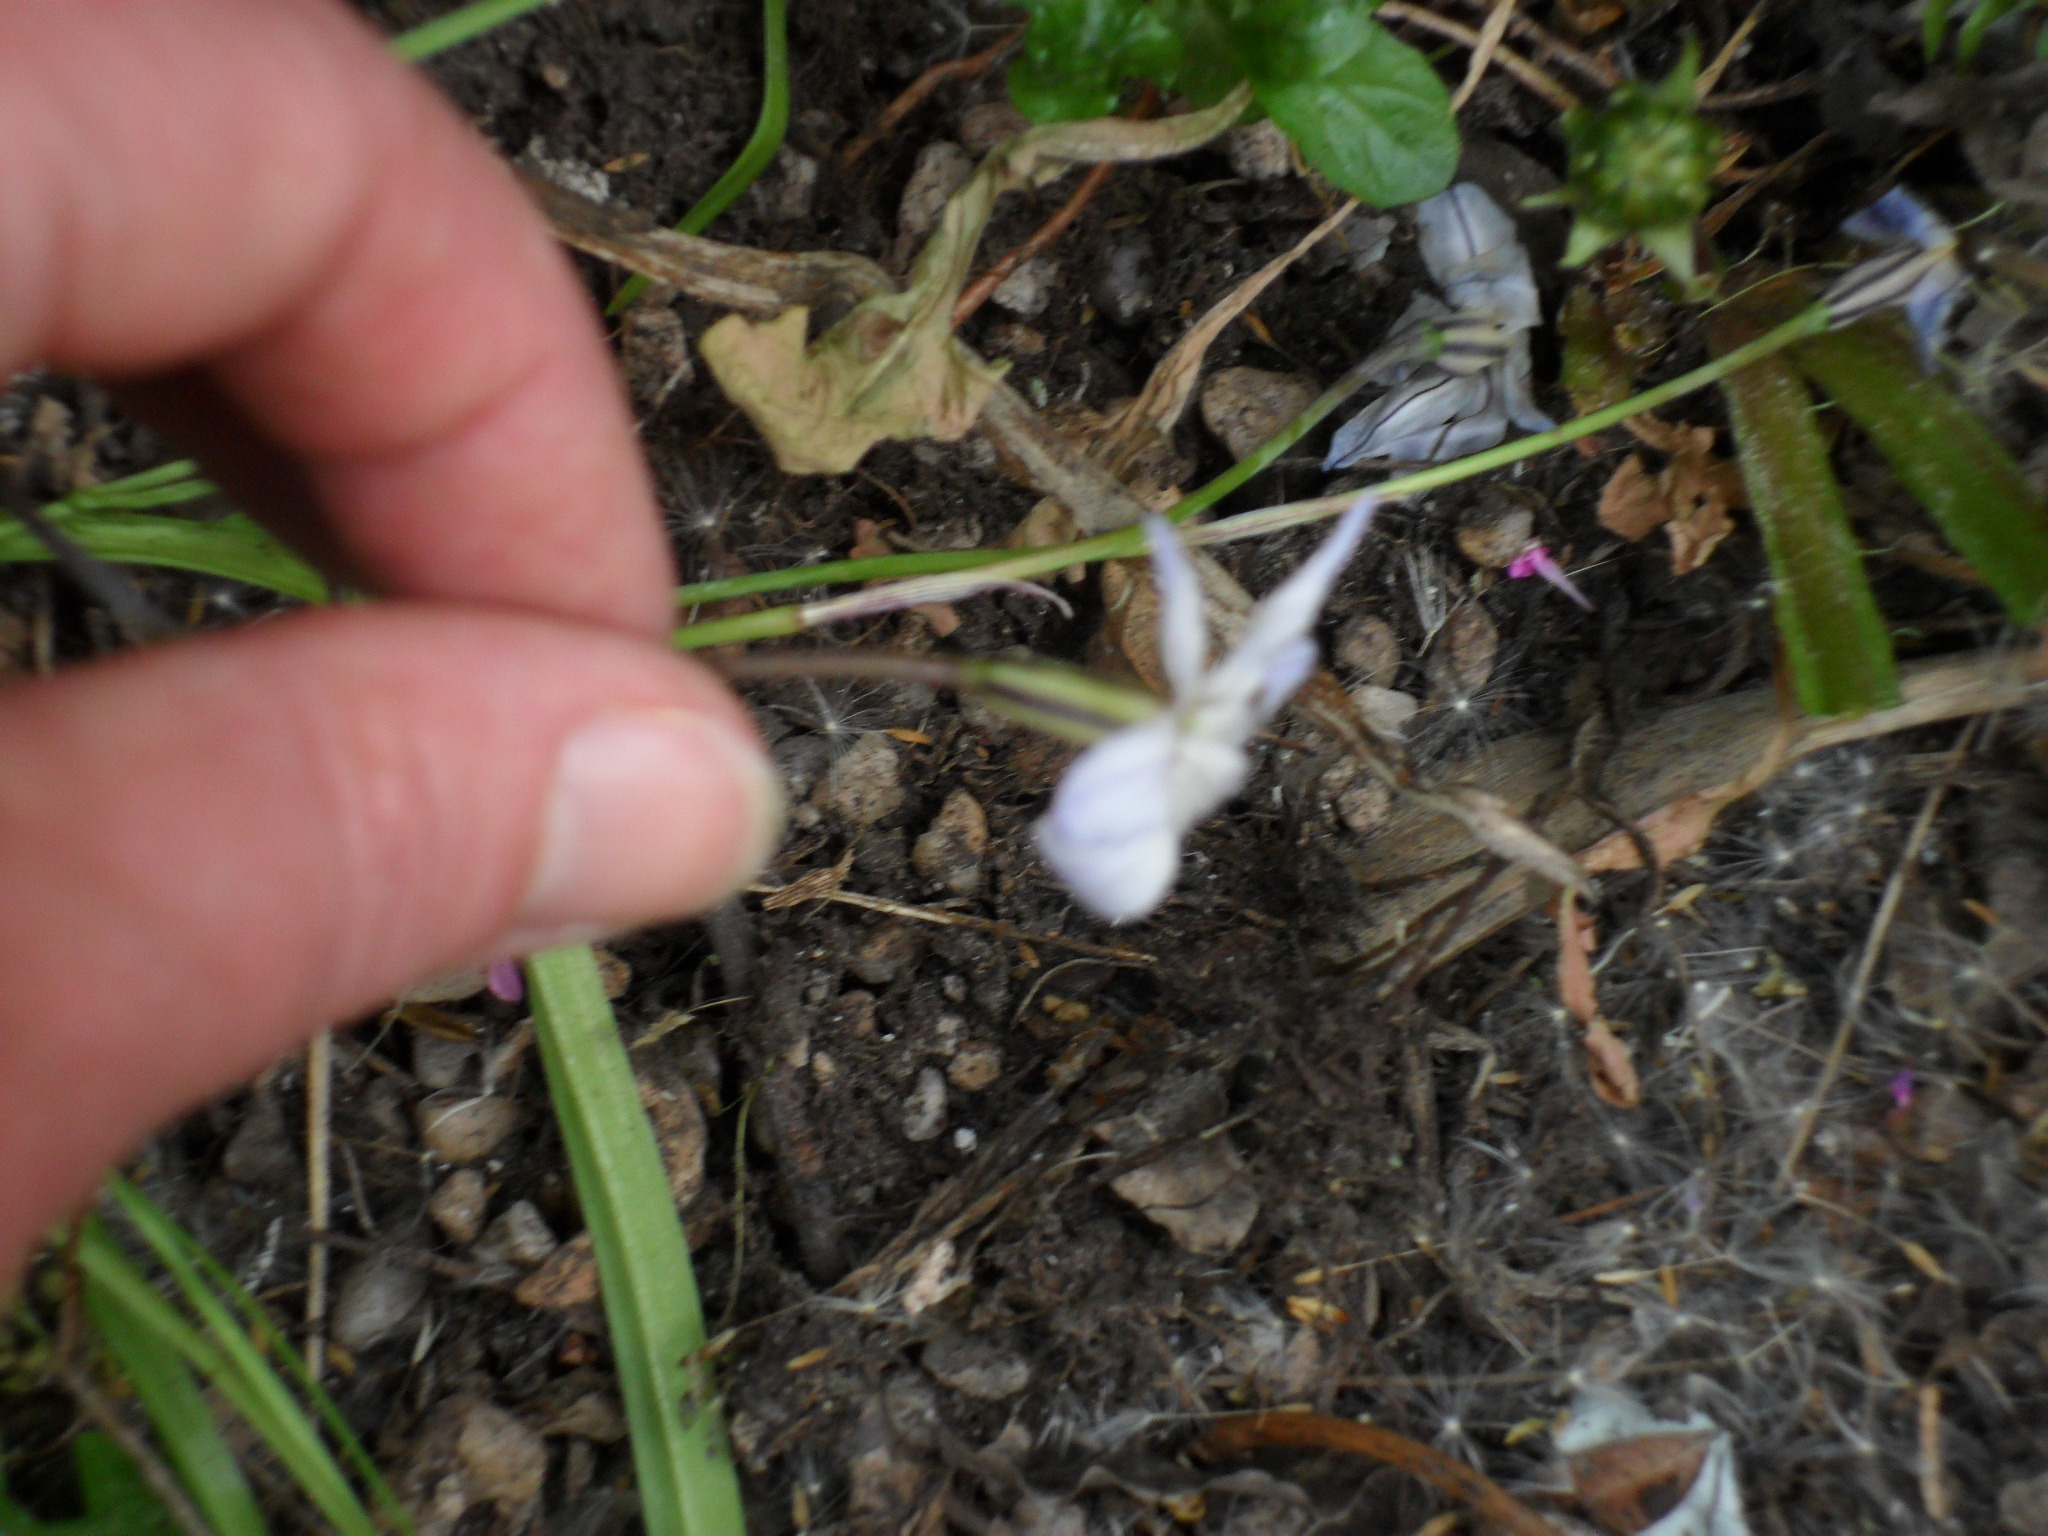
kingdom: Plantae
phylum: Tracheophyta
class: Liliopsida
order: Asparagales
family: Amaryllidaceae
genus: Ipheion
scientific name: Ipheion uniflorum
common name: Spring starflower
